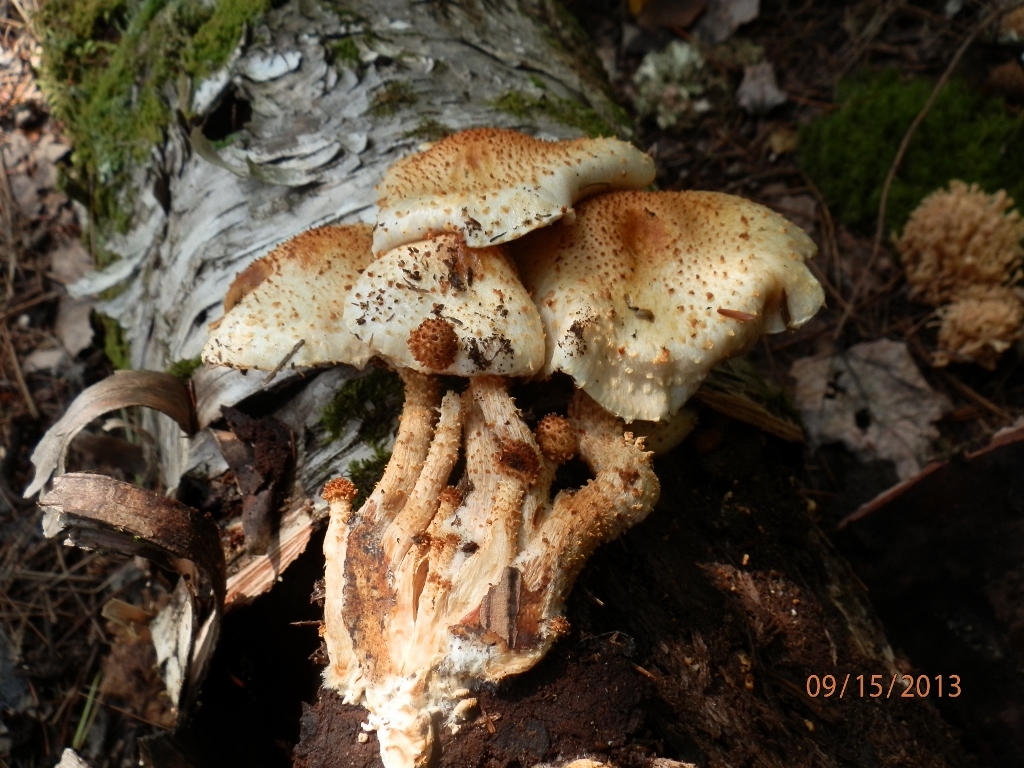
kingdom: Fungi
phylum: Basidiomycota
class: Agaricomycetes
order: Agaricales
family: Strophariaceae
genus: Pholiota
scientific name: Pholiota squarrosoides
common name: Sharp-scaly pholiota
